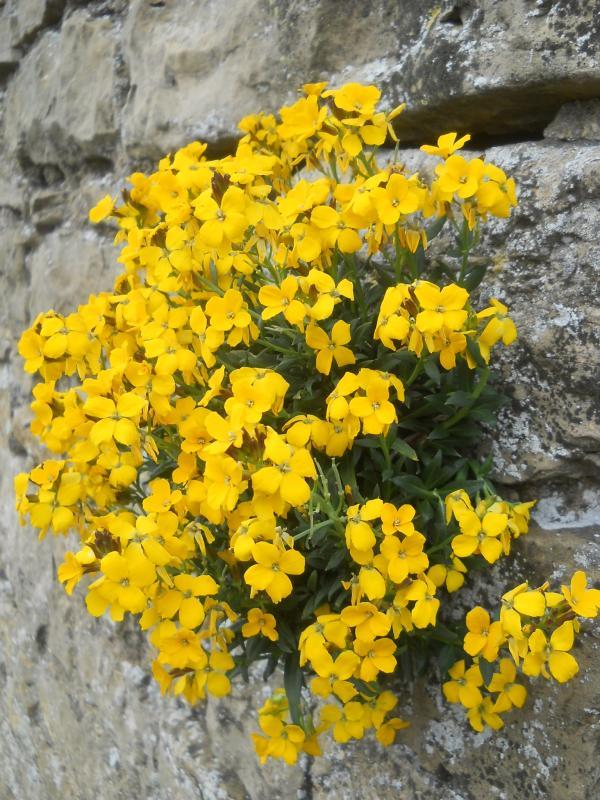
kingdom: Plantae
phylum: Tracheophyta
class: Magnoliopsida
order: Brassicales
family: Brassicaceae
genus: Erysimum
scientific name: Erysimum cheiri
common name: Wallflower
